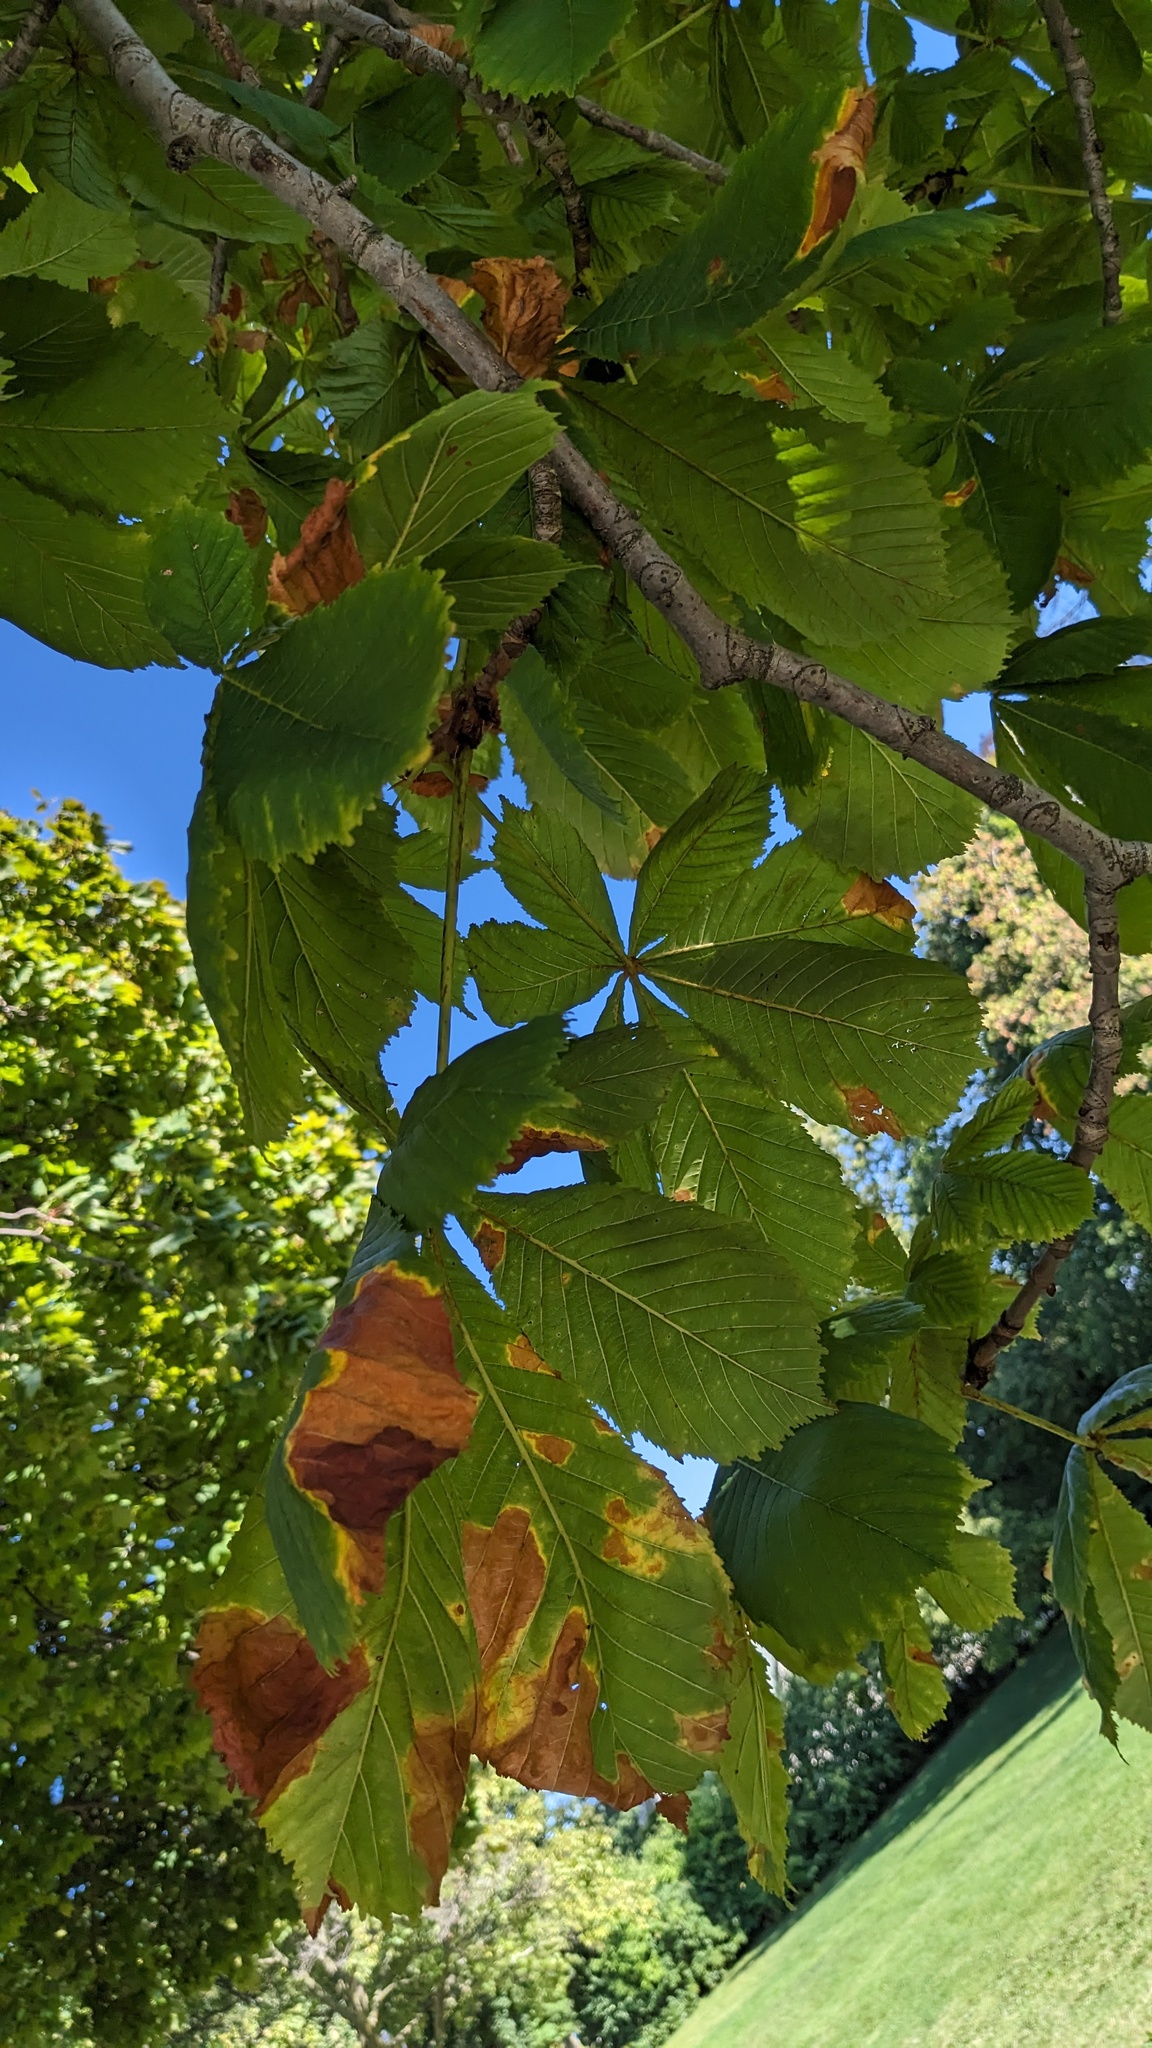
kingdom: Fungi
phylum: Ascomycota
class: Dothideomycetes
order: Botryosphaeriales
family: Phyllostictaceae
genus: Phyllosticta
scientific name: Phyllosticta paviae
